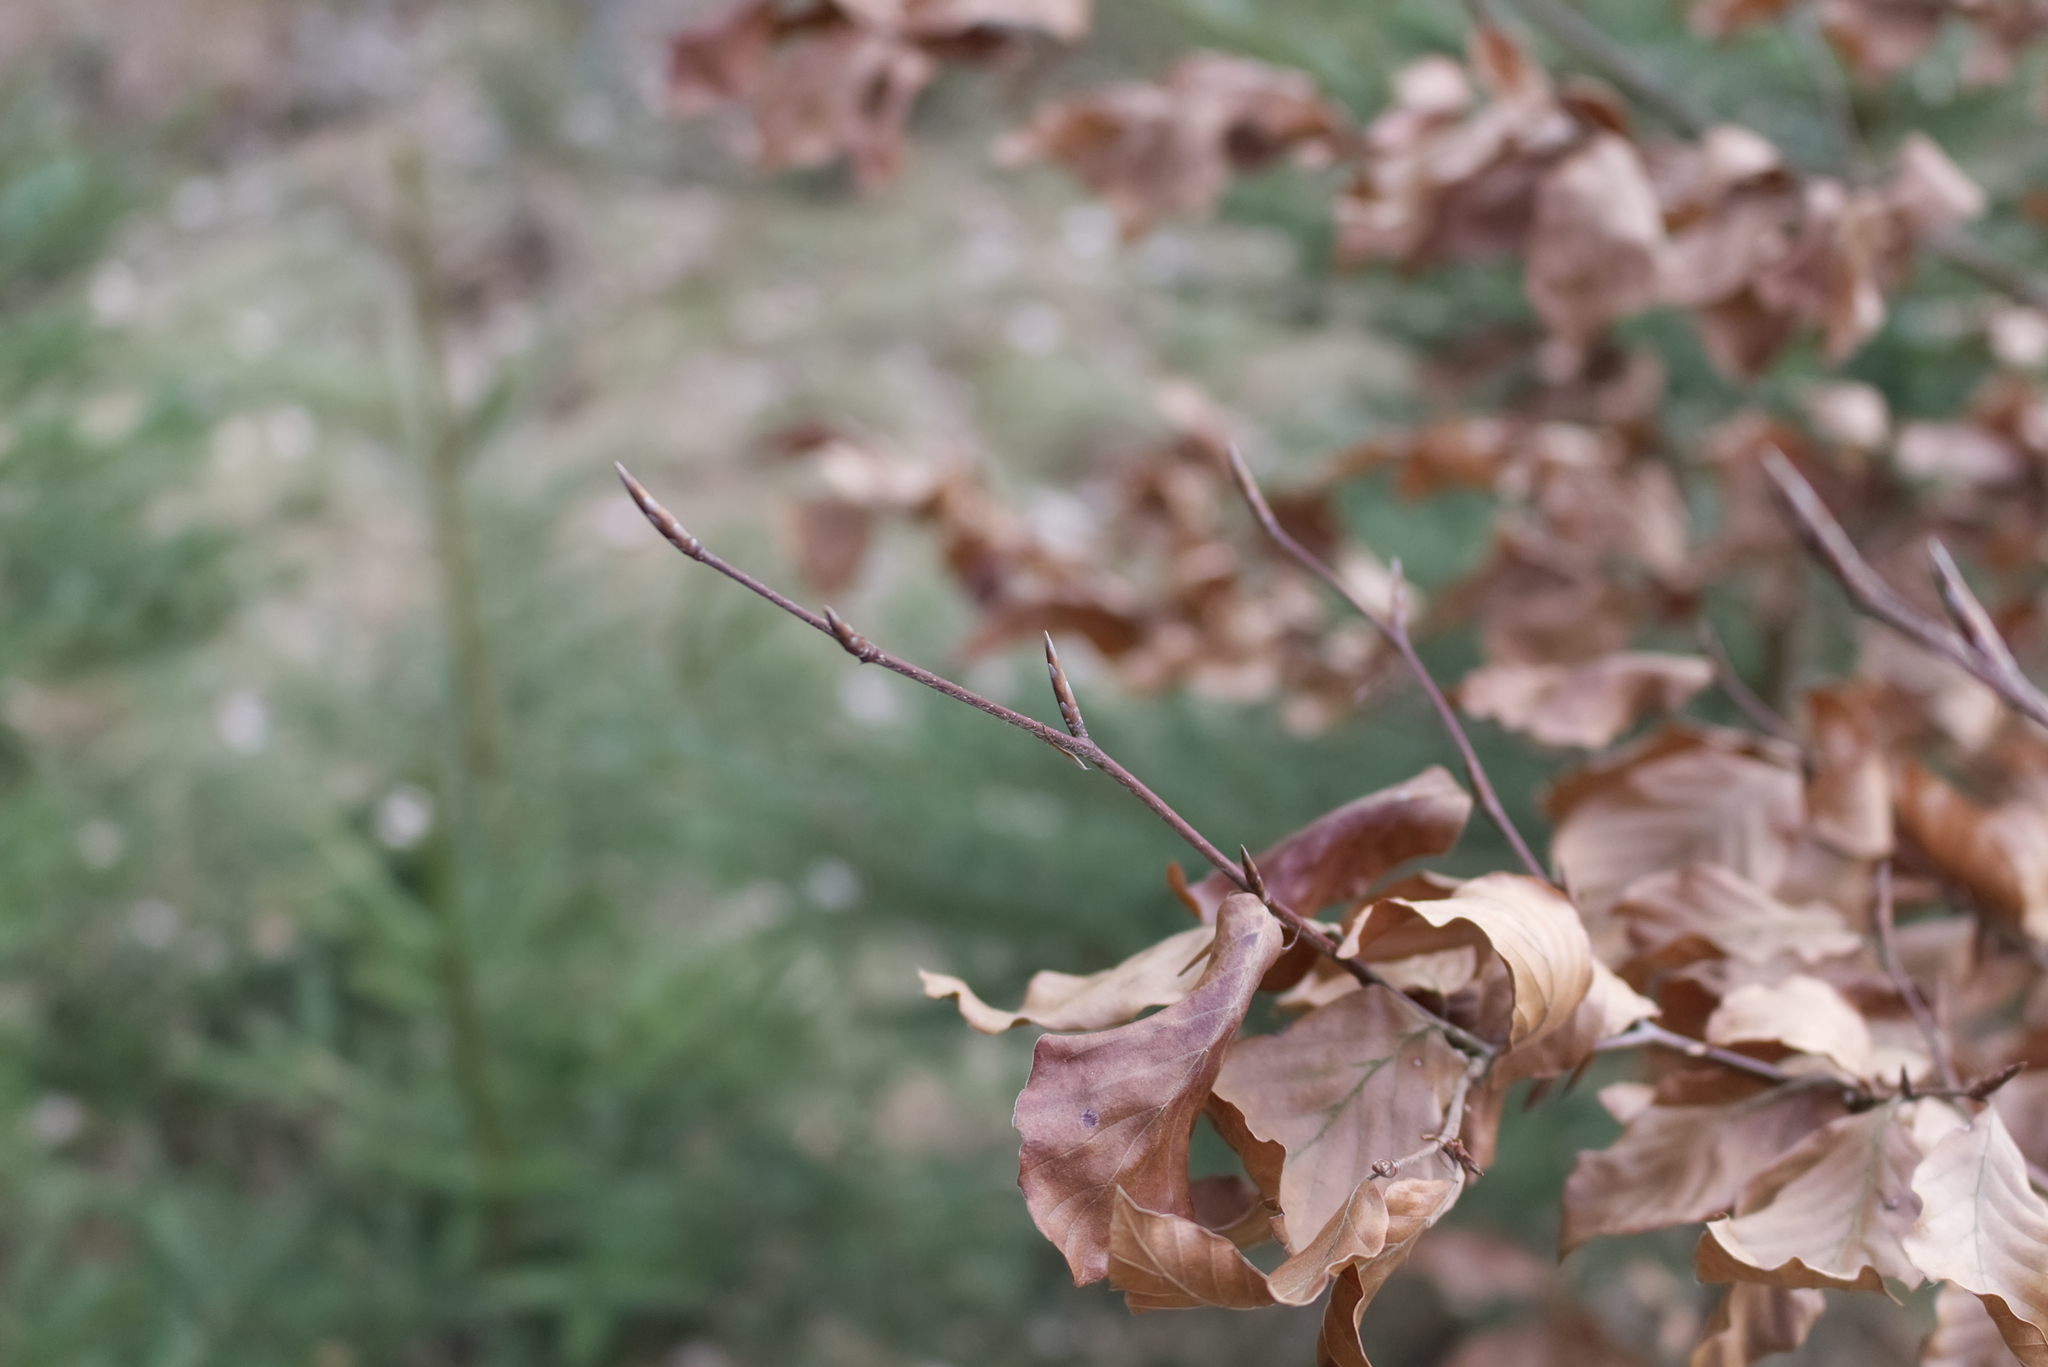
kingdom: Plantae
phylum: Tracheophyta
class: Magnoliopsida
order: Fagales
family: Fagaceae
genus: Fagus
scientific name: Fagus sylvatica
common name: Beech
